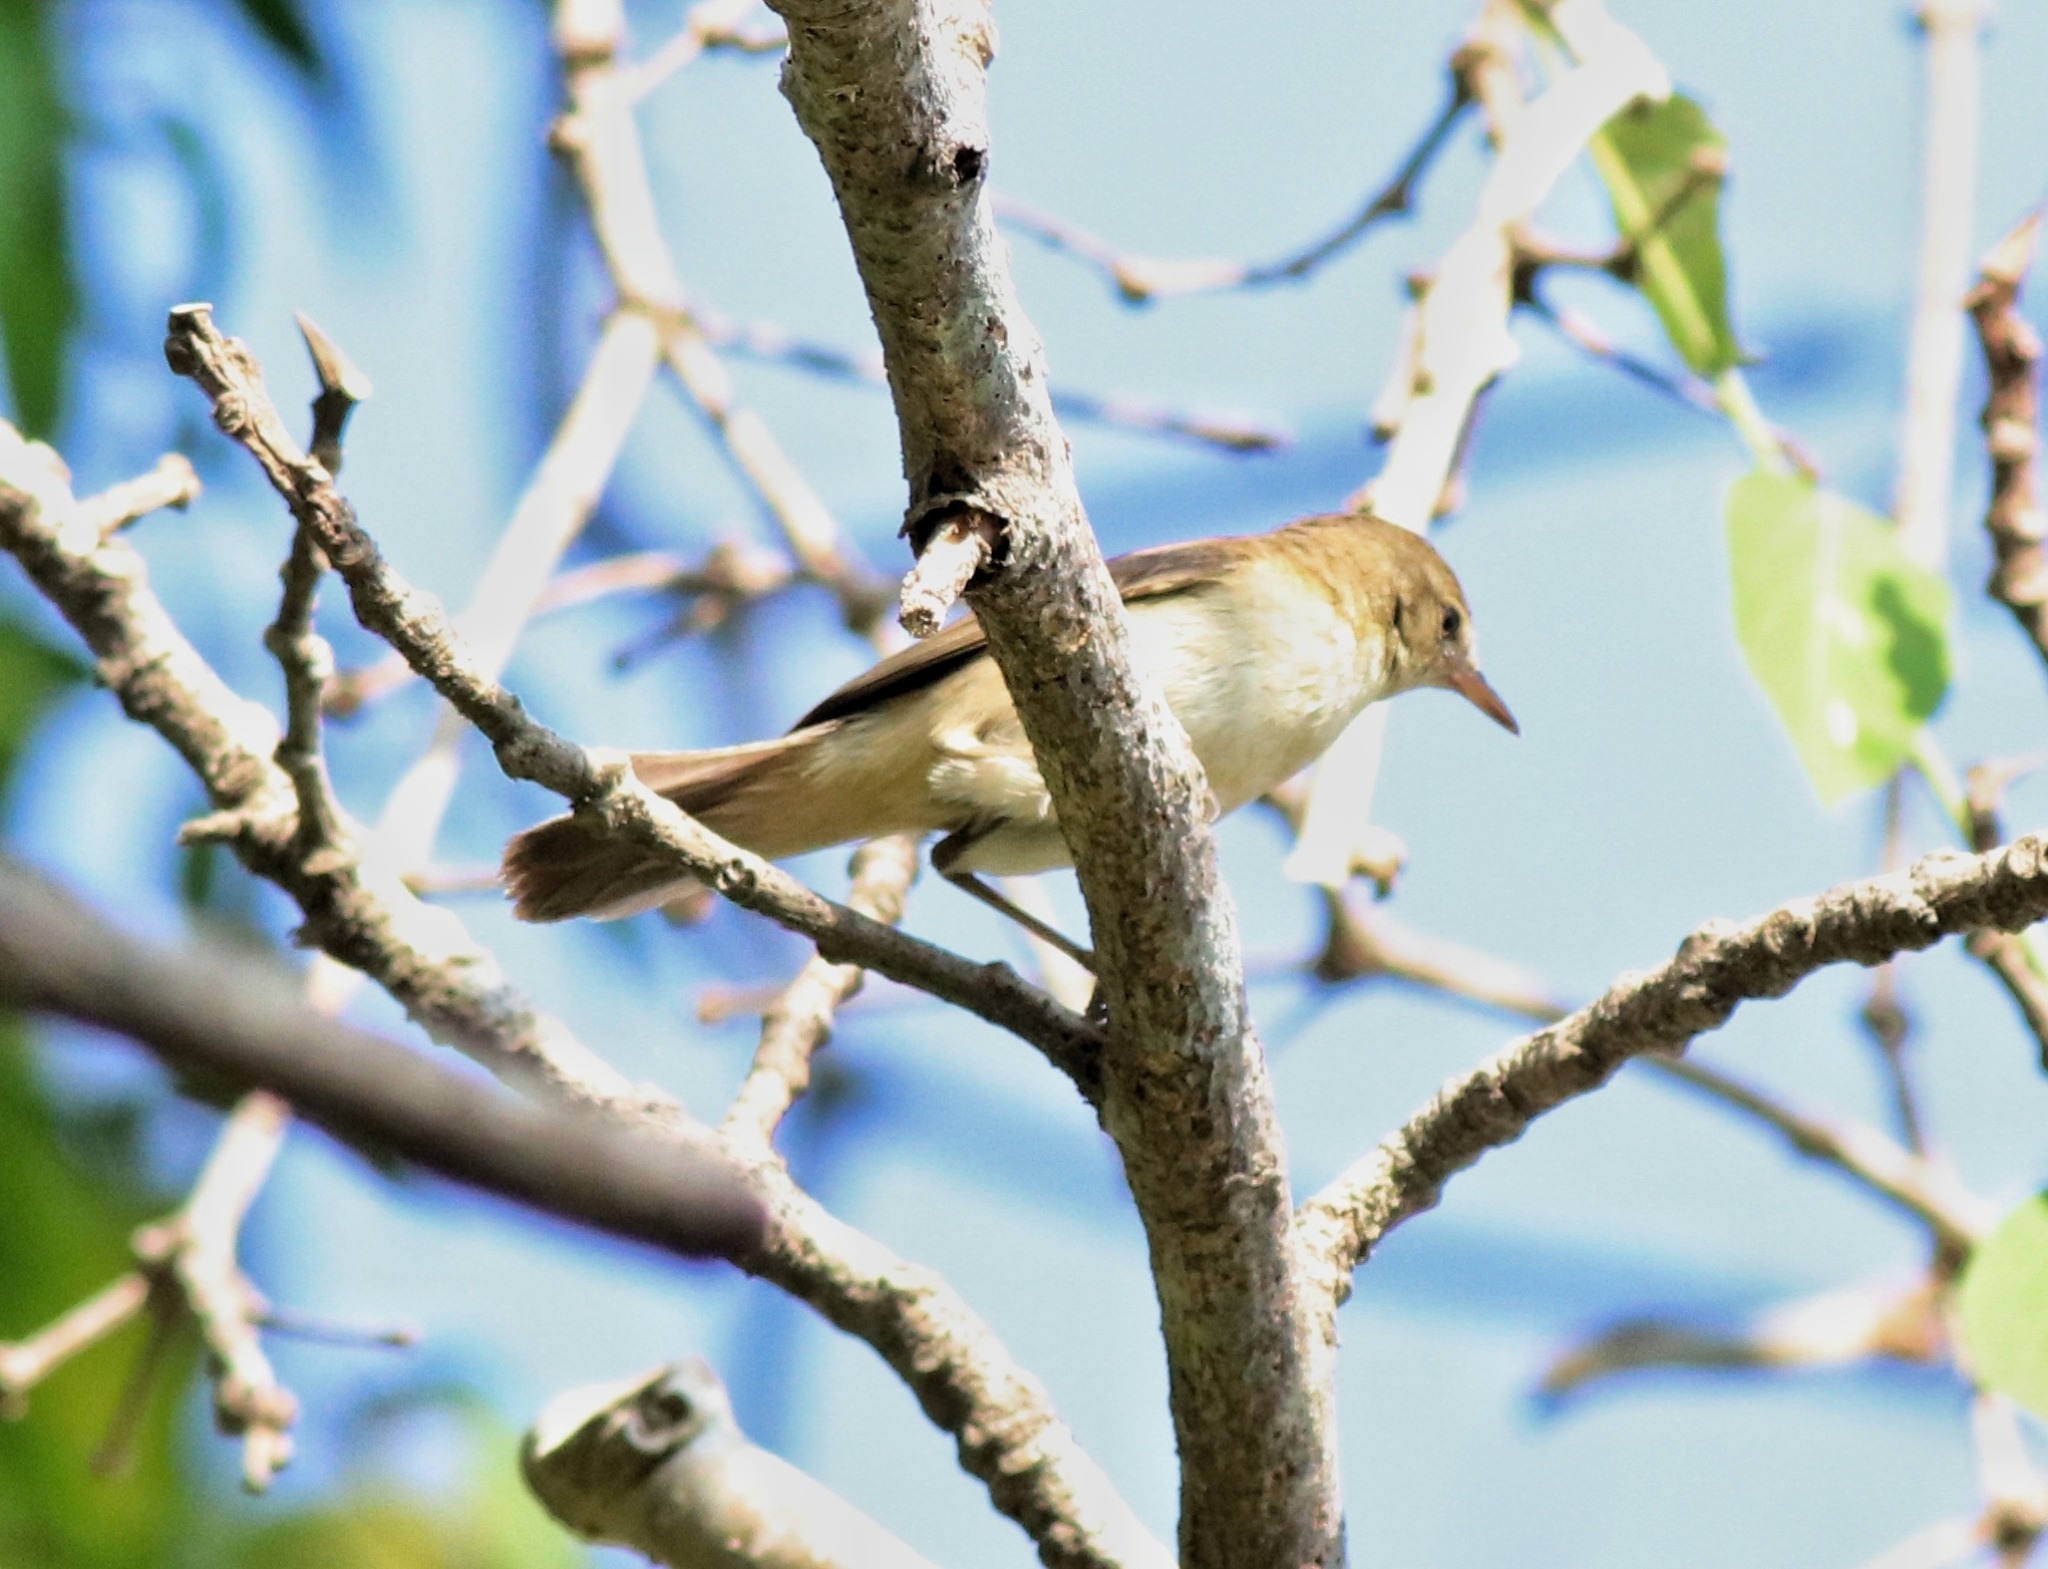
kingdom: Animalia
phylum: Chordata
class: Aves
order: Passeriformes
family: Acrocephalidae
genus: Acrocephalus
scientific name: Acrocephalus dumetorum
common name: Blyth's reed warbler
